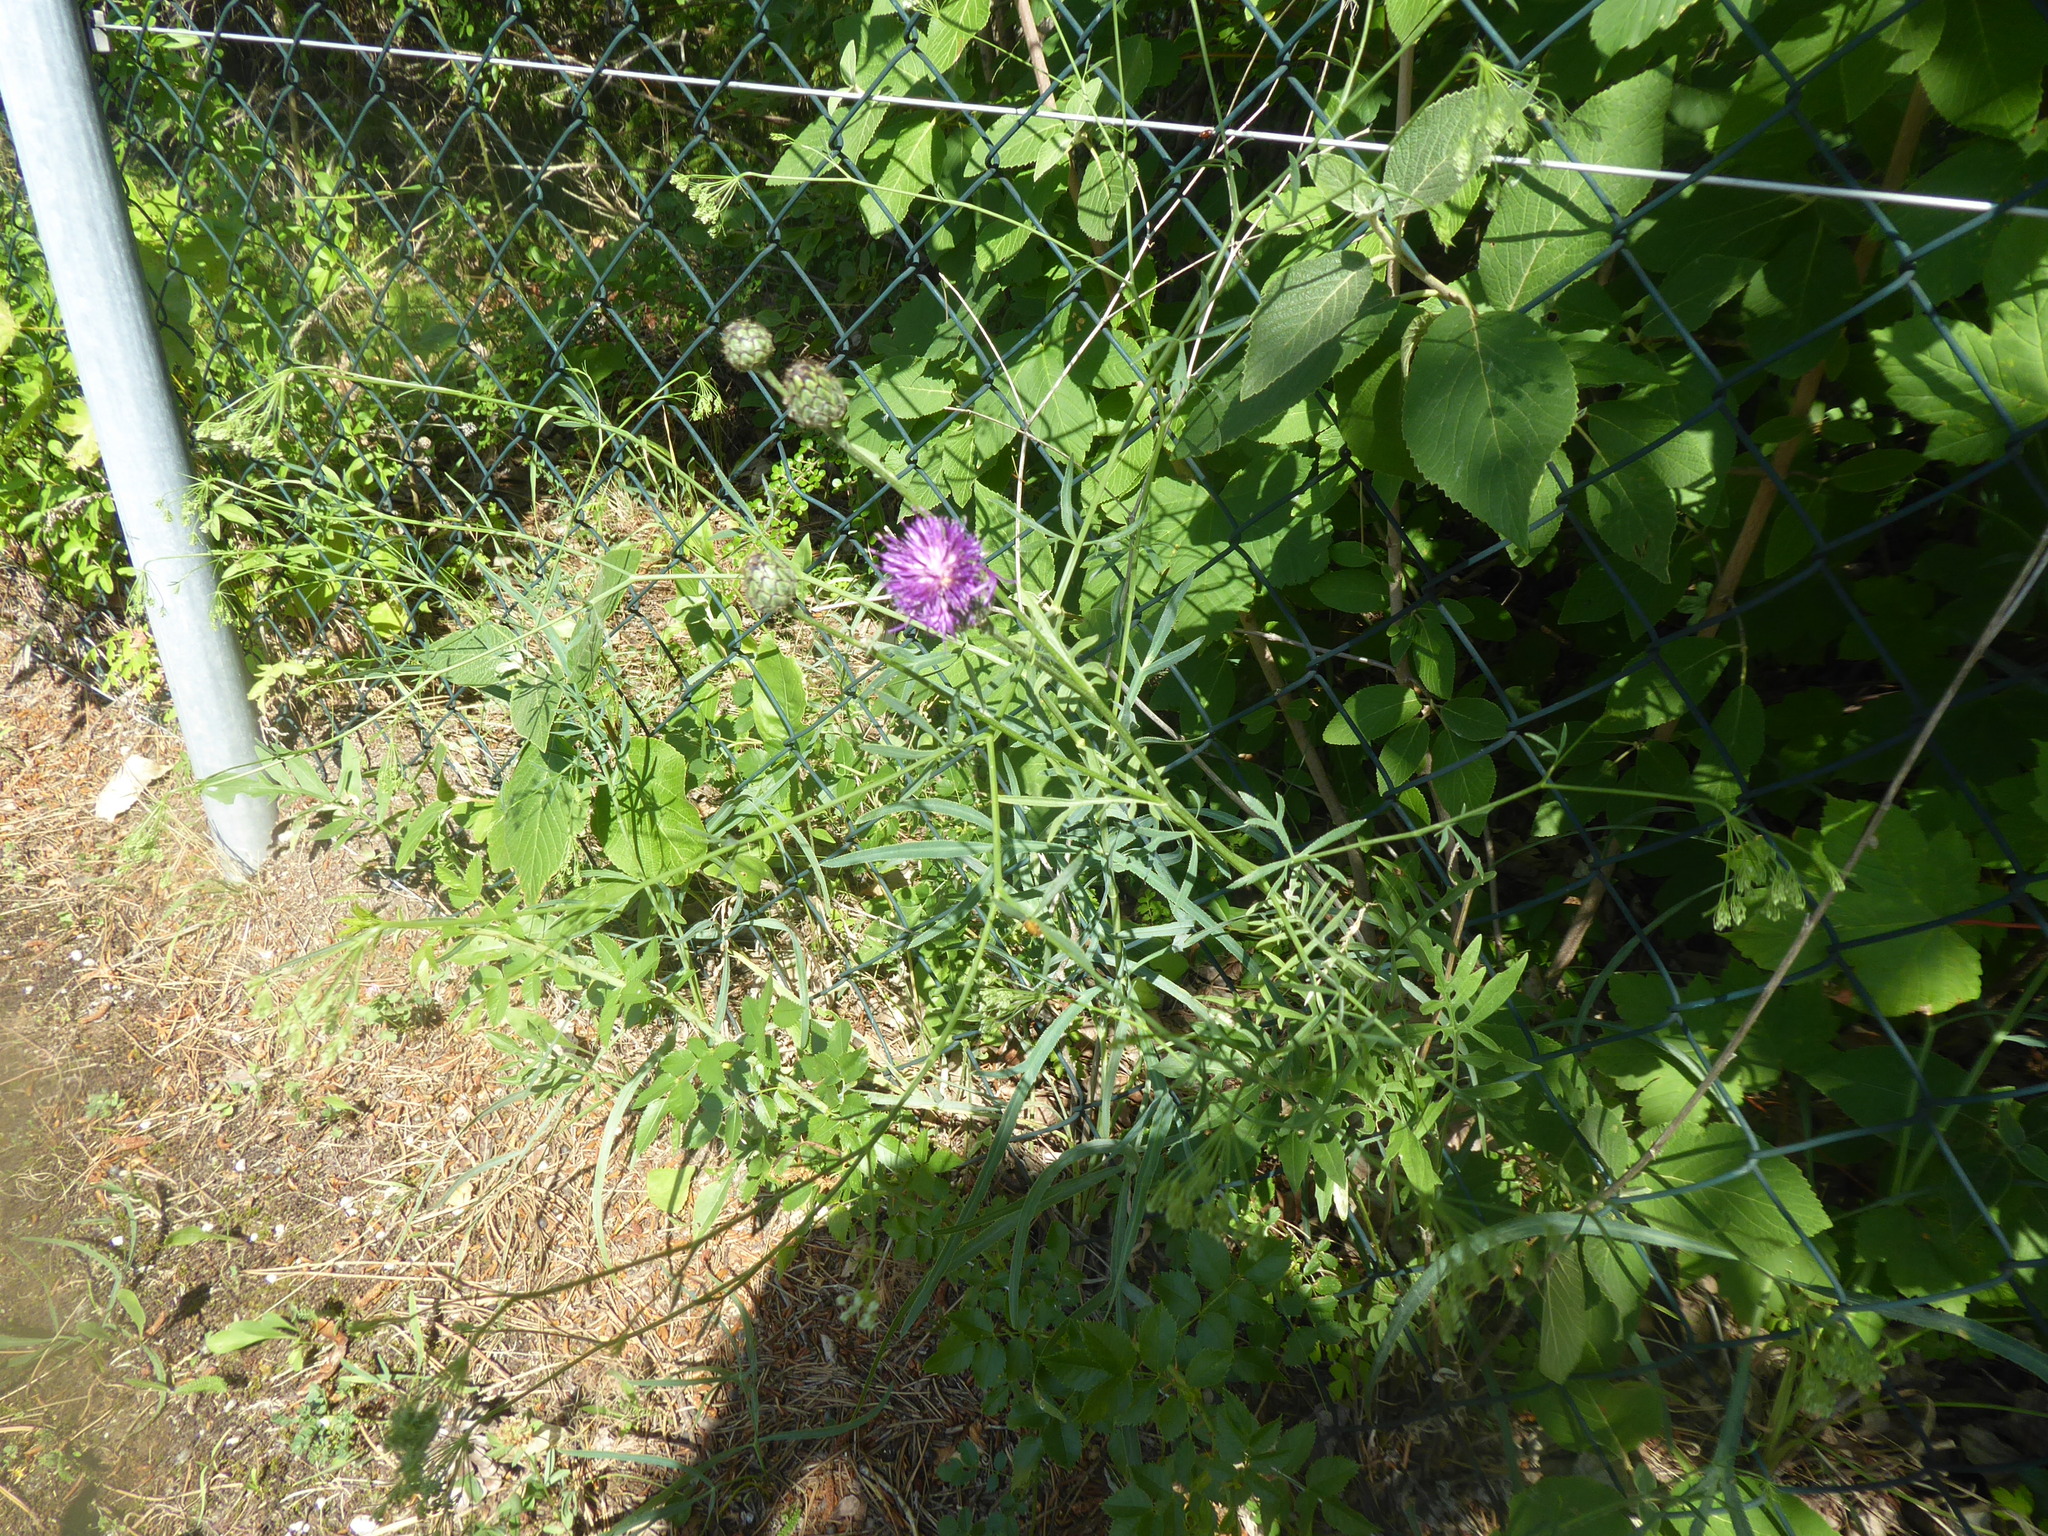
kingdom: Plantae
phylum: Tracheophyta
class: Magnoliopsida
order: Asterales
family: Asteraceae
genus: Centaurea
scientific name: Centaurea scabiosa
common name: Greater knapweed
